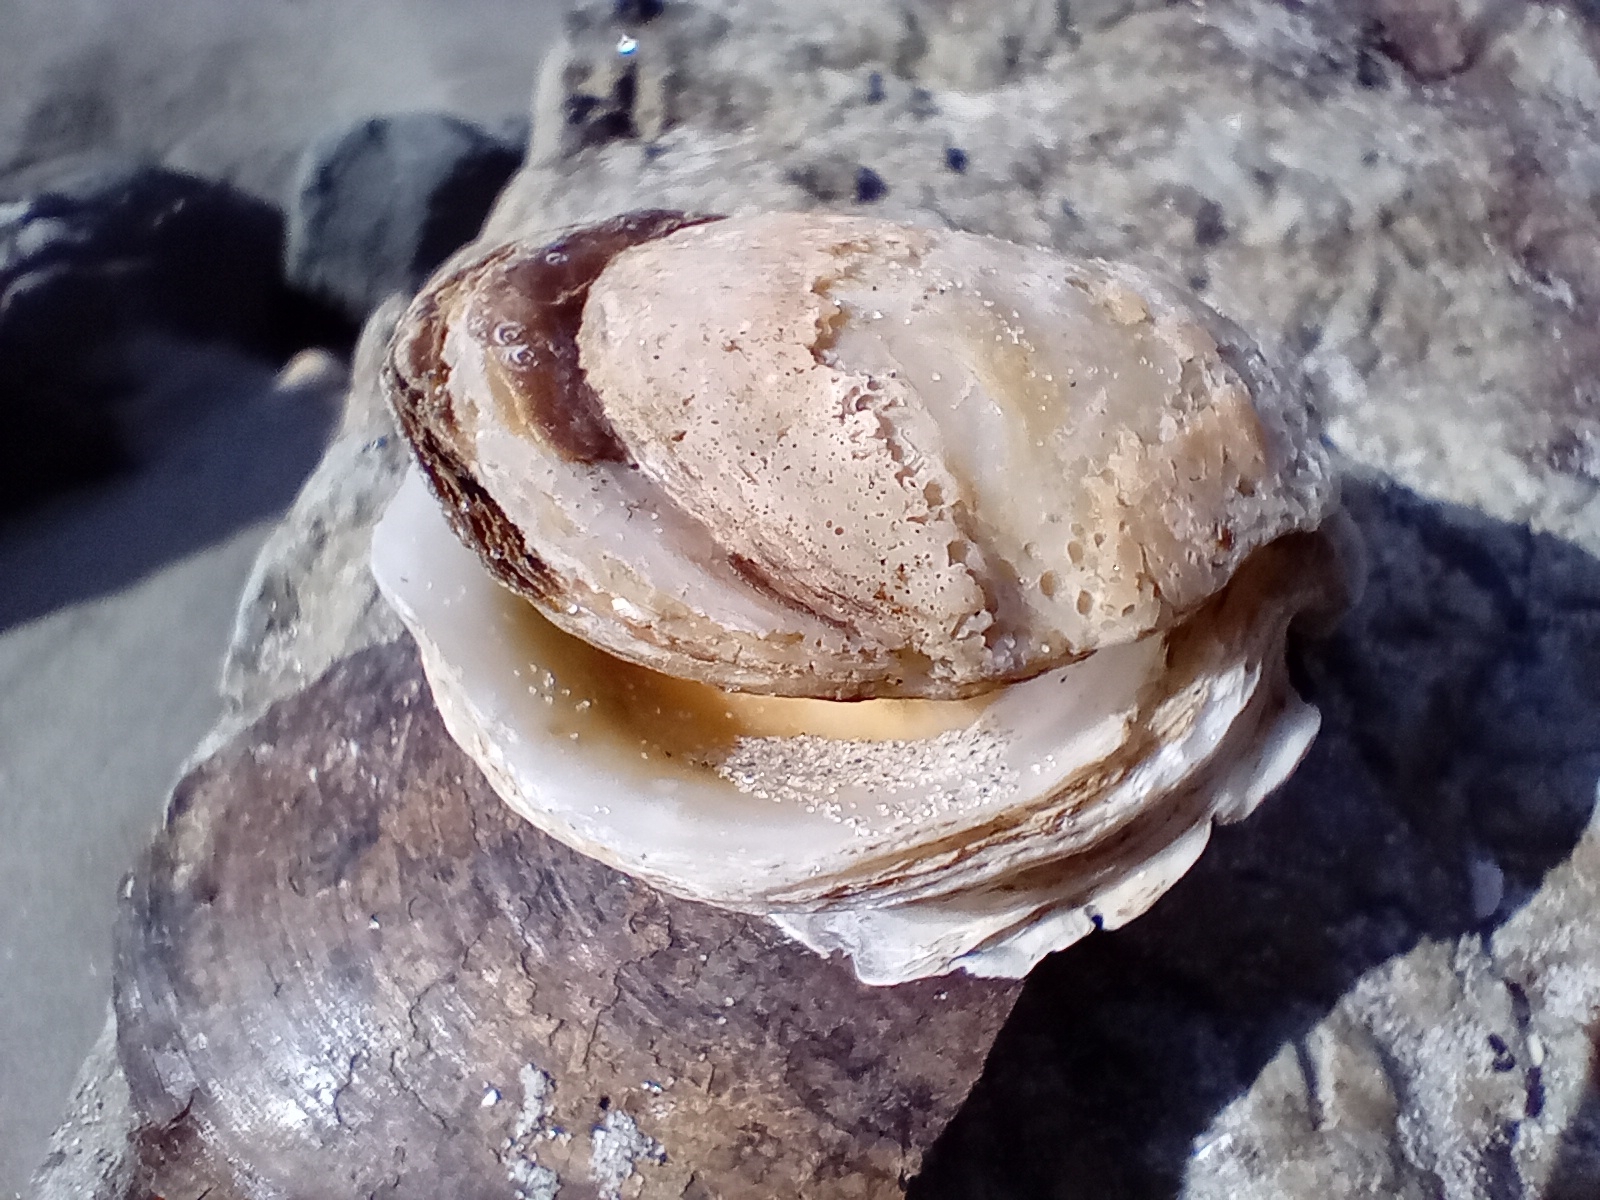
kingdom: Animalia
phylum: Mollusca
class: Bivalvia
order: Ostreida
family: Ostreidae
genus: Ostrea
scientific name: Ostrea chilensis
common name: Chilean oyster
